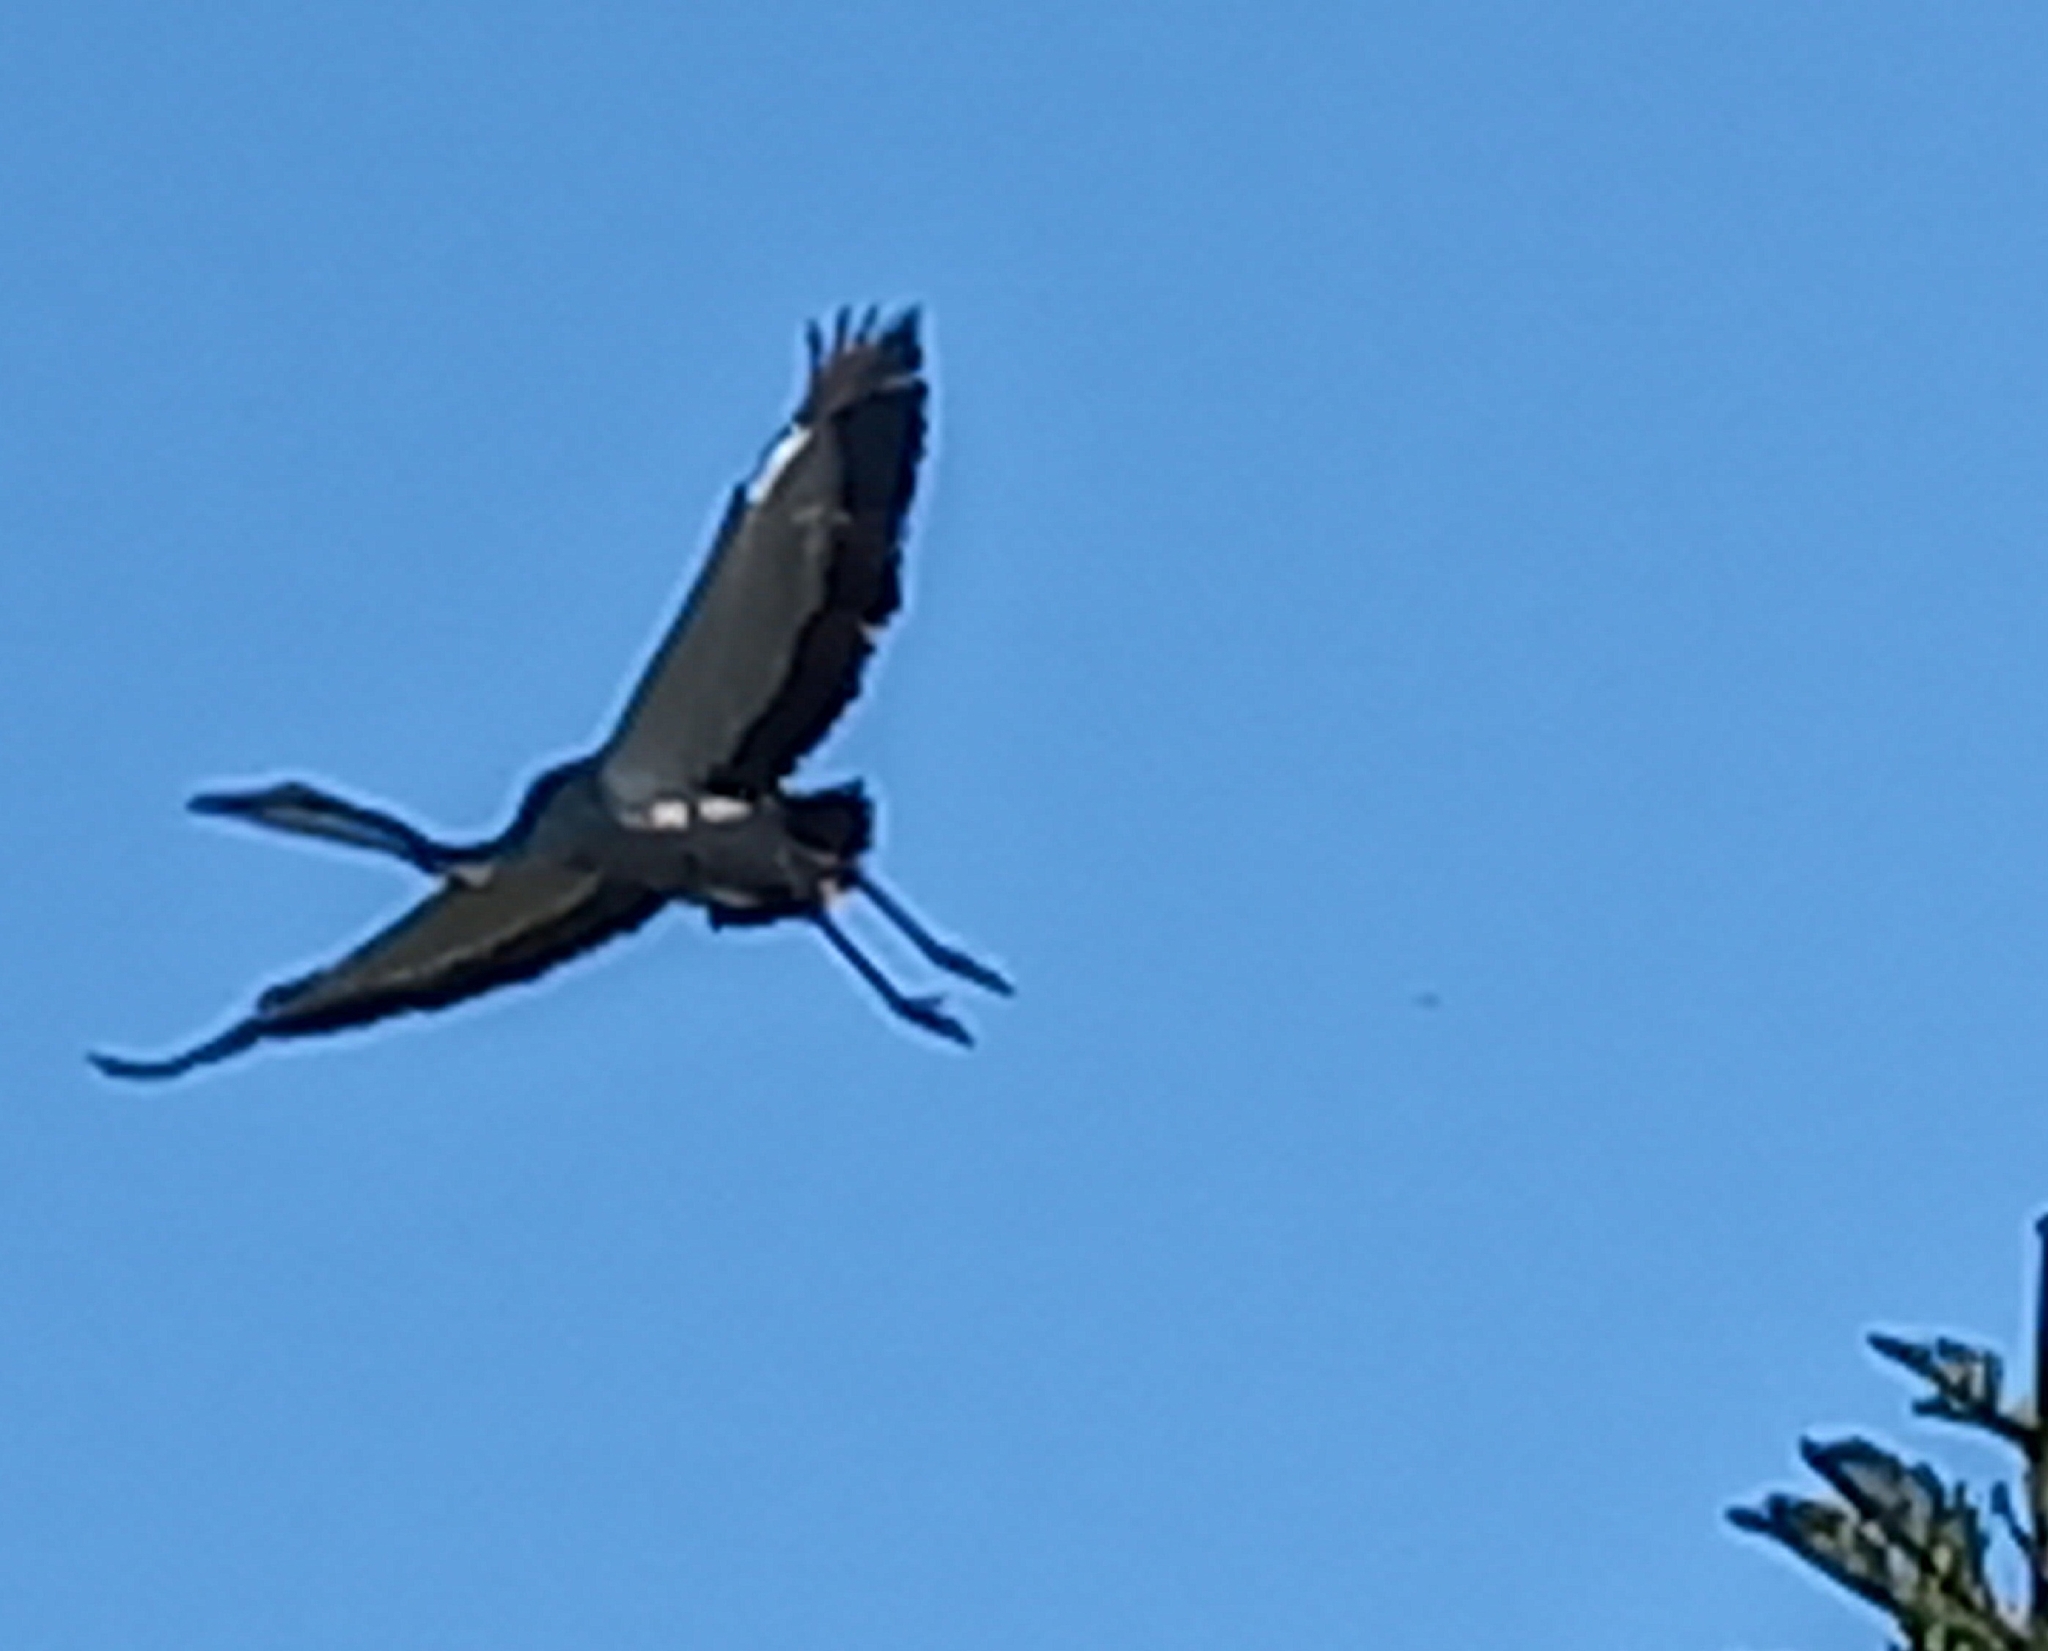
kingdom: Animalia
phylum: Chordata
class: Aves
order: Pelecaniformes
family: Ardeidae
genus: Ardea
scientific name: Ardea melanocephala
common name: Black-headed heron
